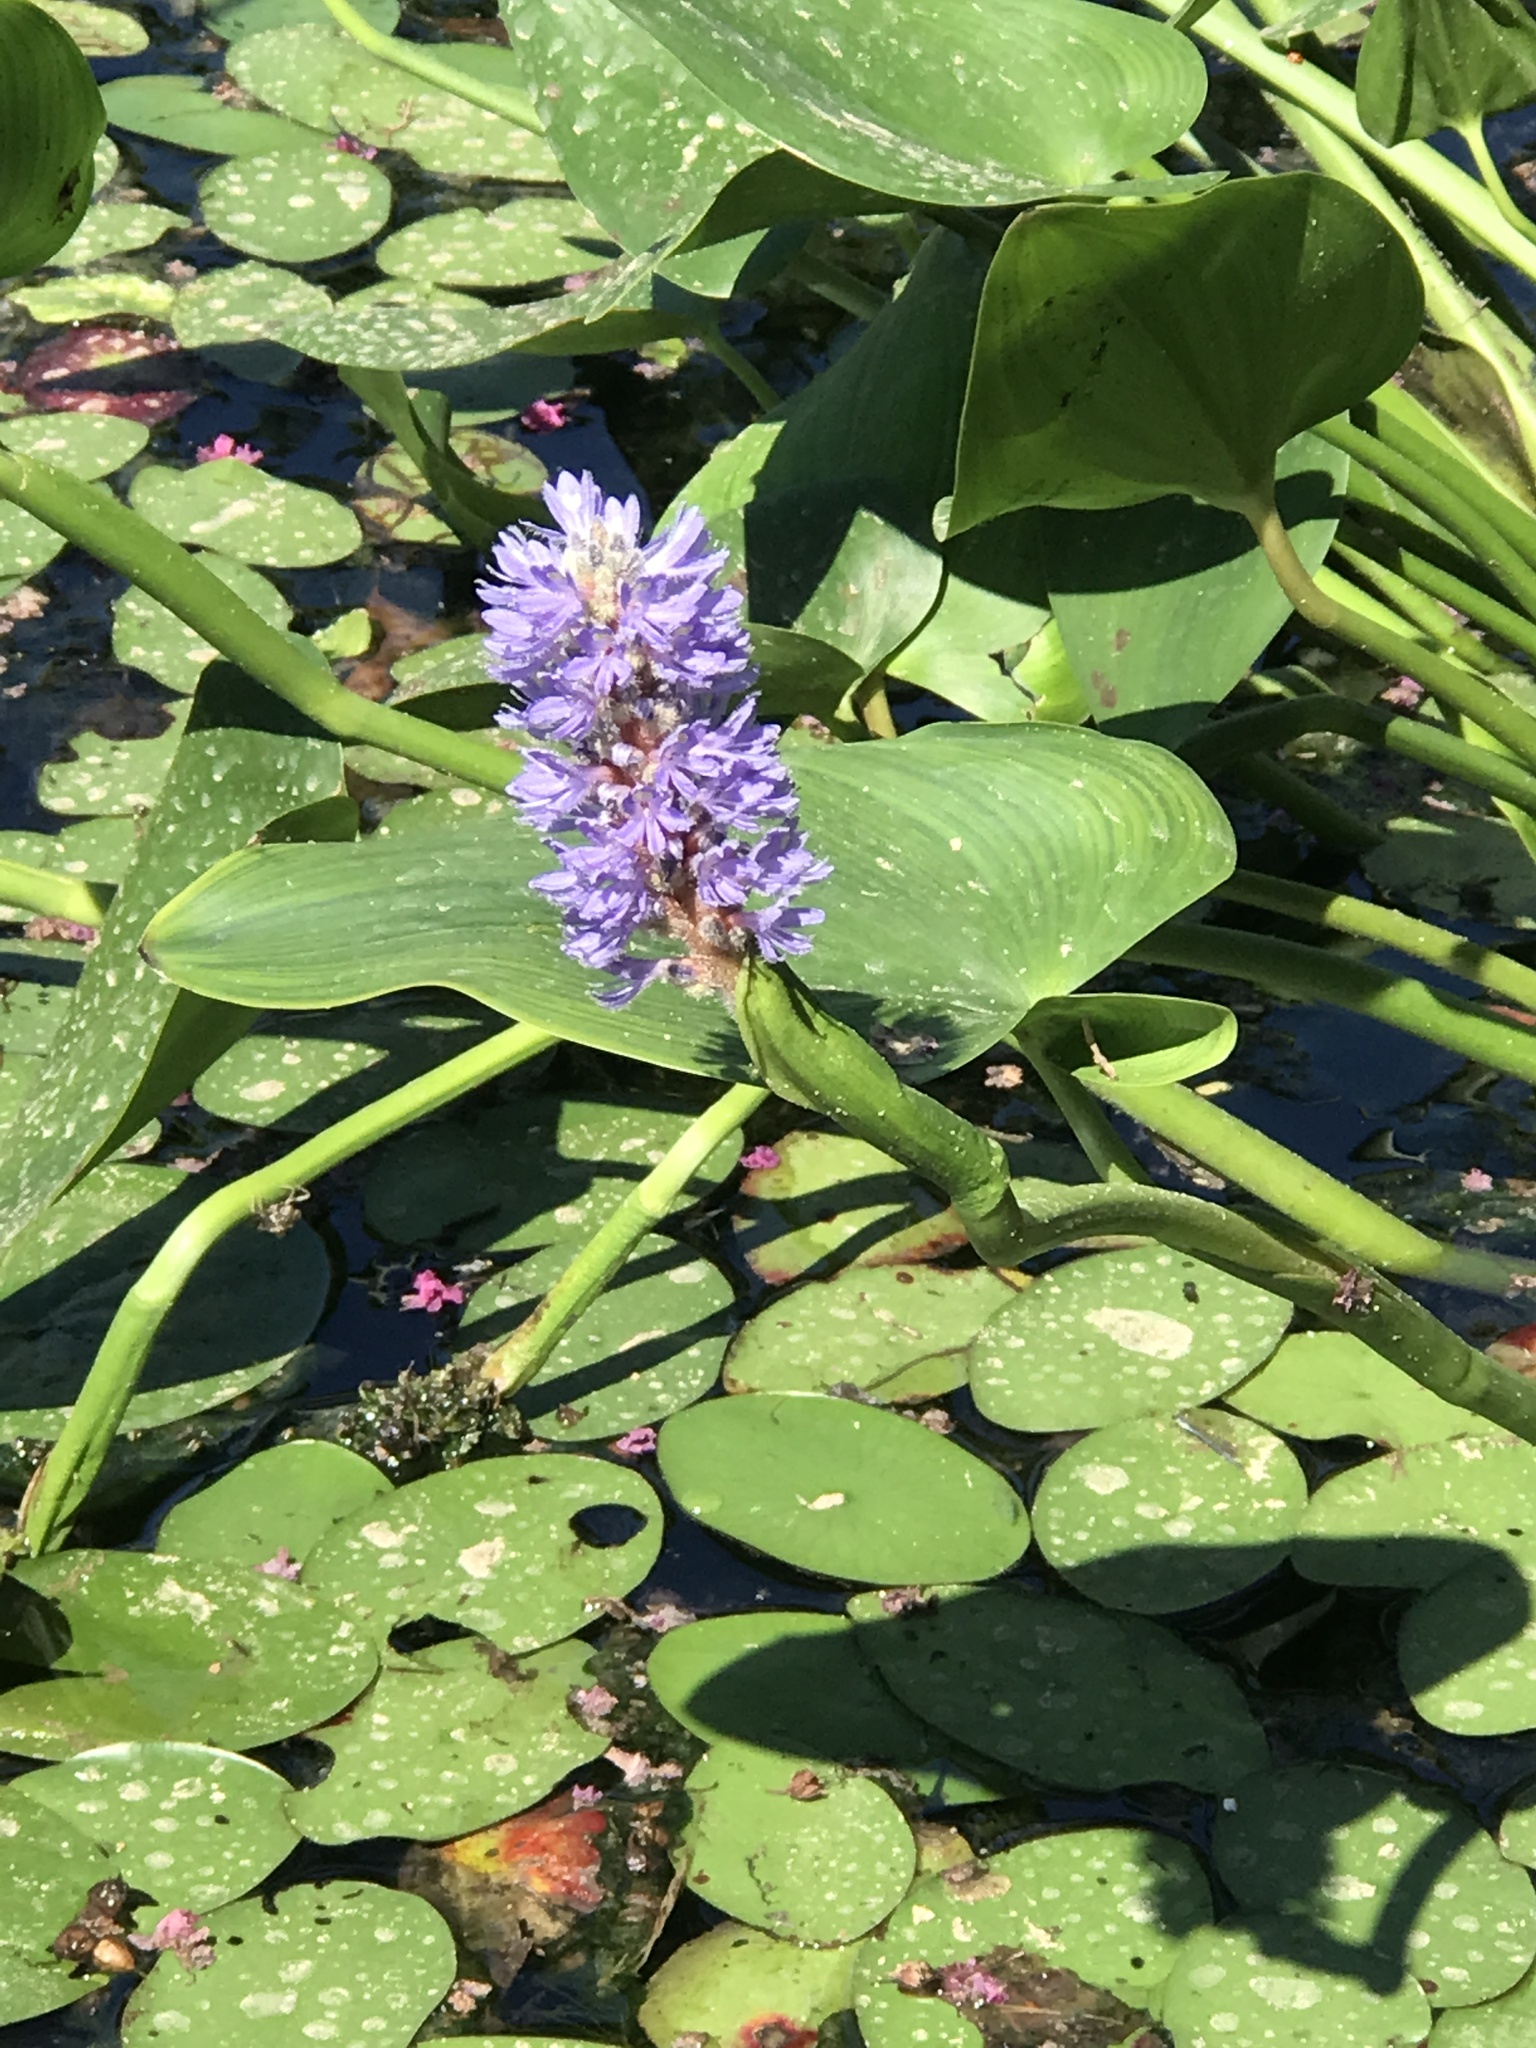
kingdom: Plantae
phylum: Tracheophyta
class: Liliopsida
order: Commelinales
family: Pontederiaceae
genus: Pontederia
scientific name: Pontederia cordata
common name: Pickerelweed
